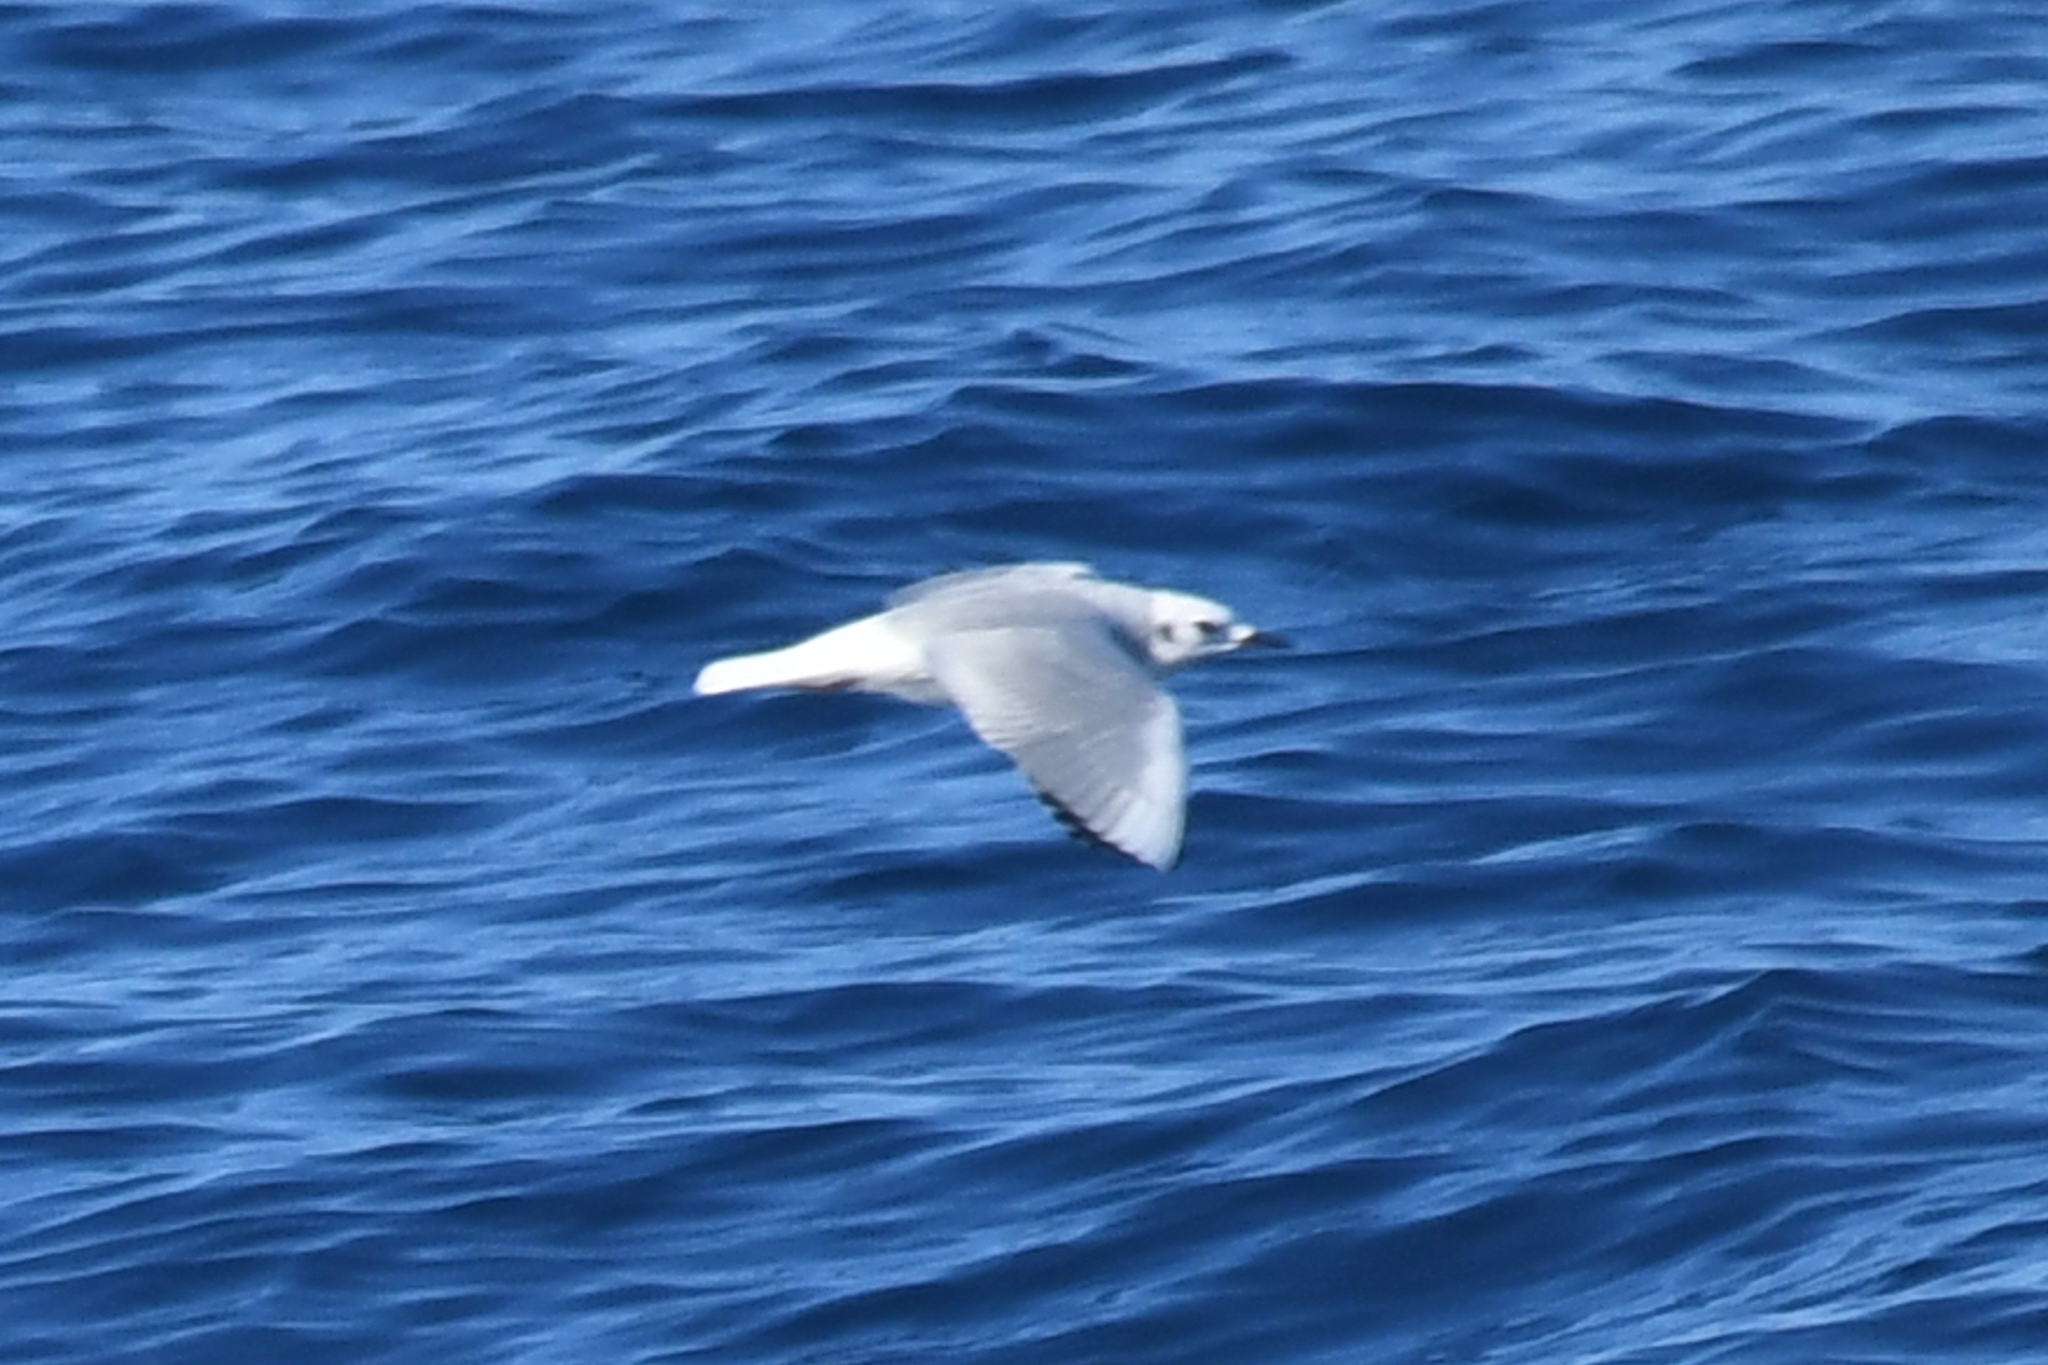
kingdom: Animalia
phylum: Chordata
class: Aves
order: Charadriiformes
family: Laridae
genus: Chroicocephalus
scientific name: Chroicocephalus philadelphia
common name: Bonaparte's gull
